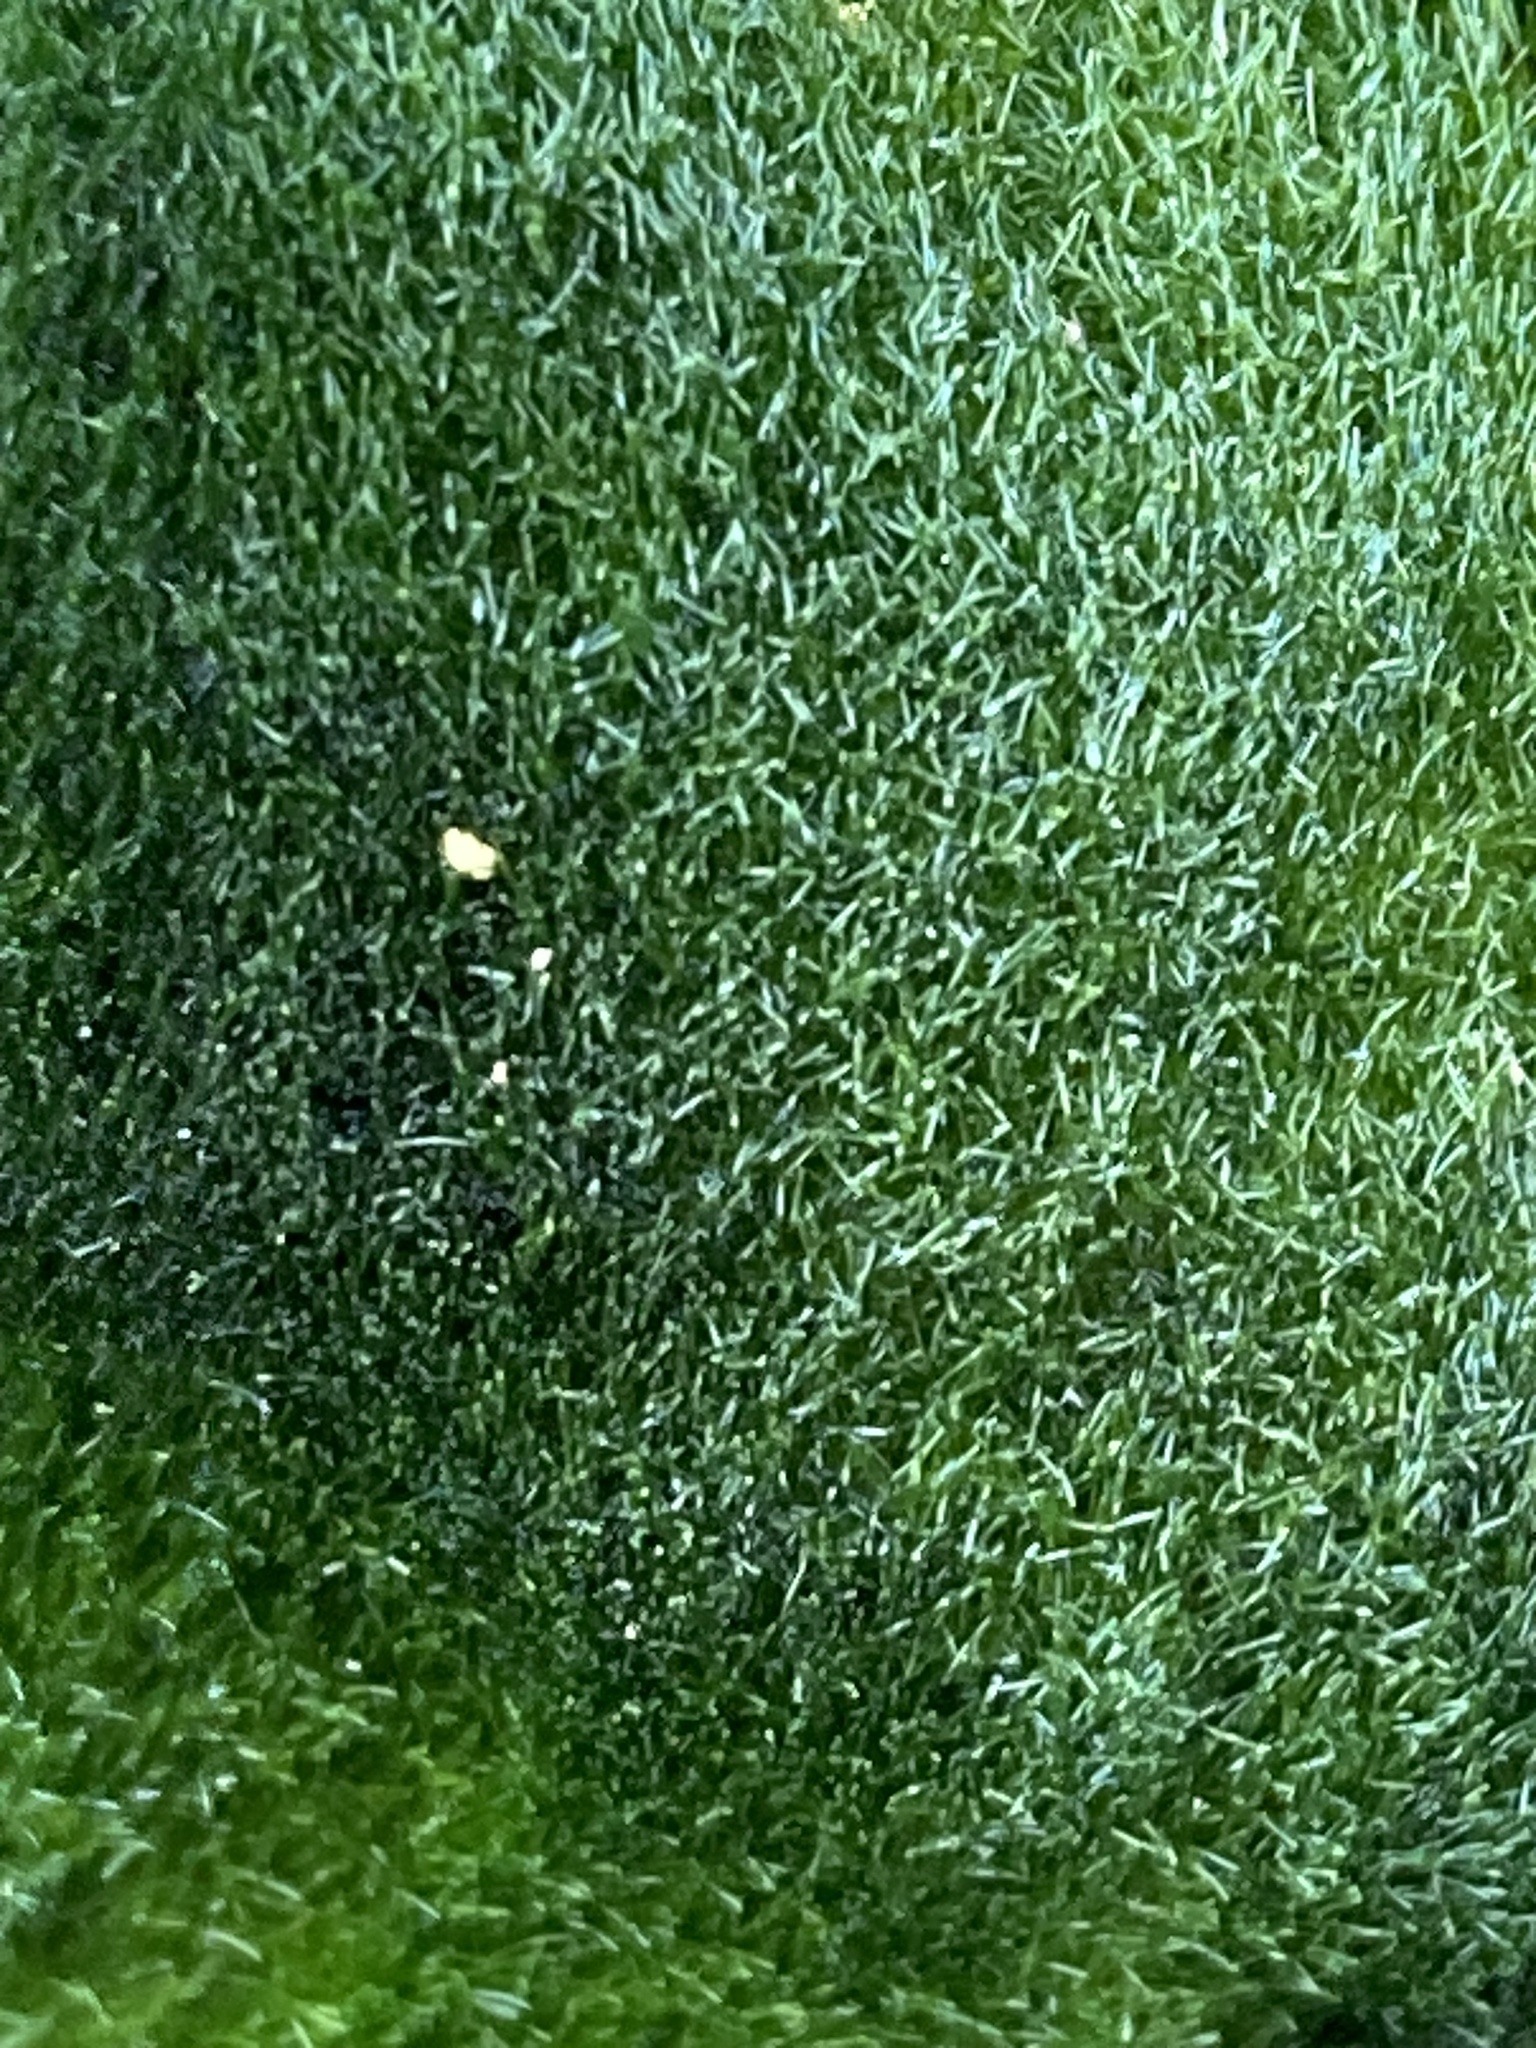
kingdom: Chromista
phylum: Ochrophyta
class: Xanthophyceae
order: Vaucheriales
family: Vaucheriaceae
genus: Vaucheria
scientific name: Vaucheria
